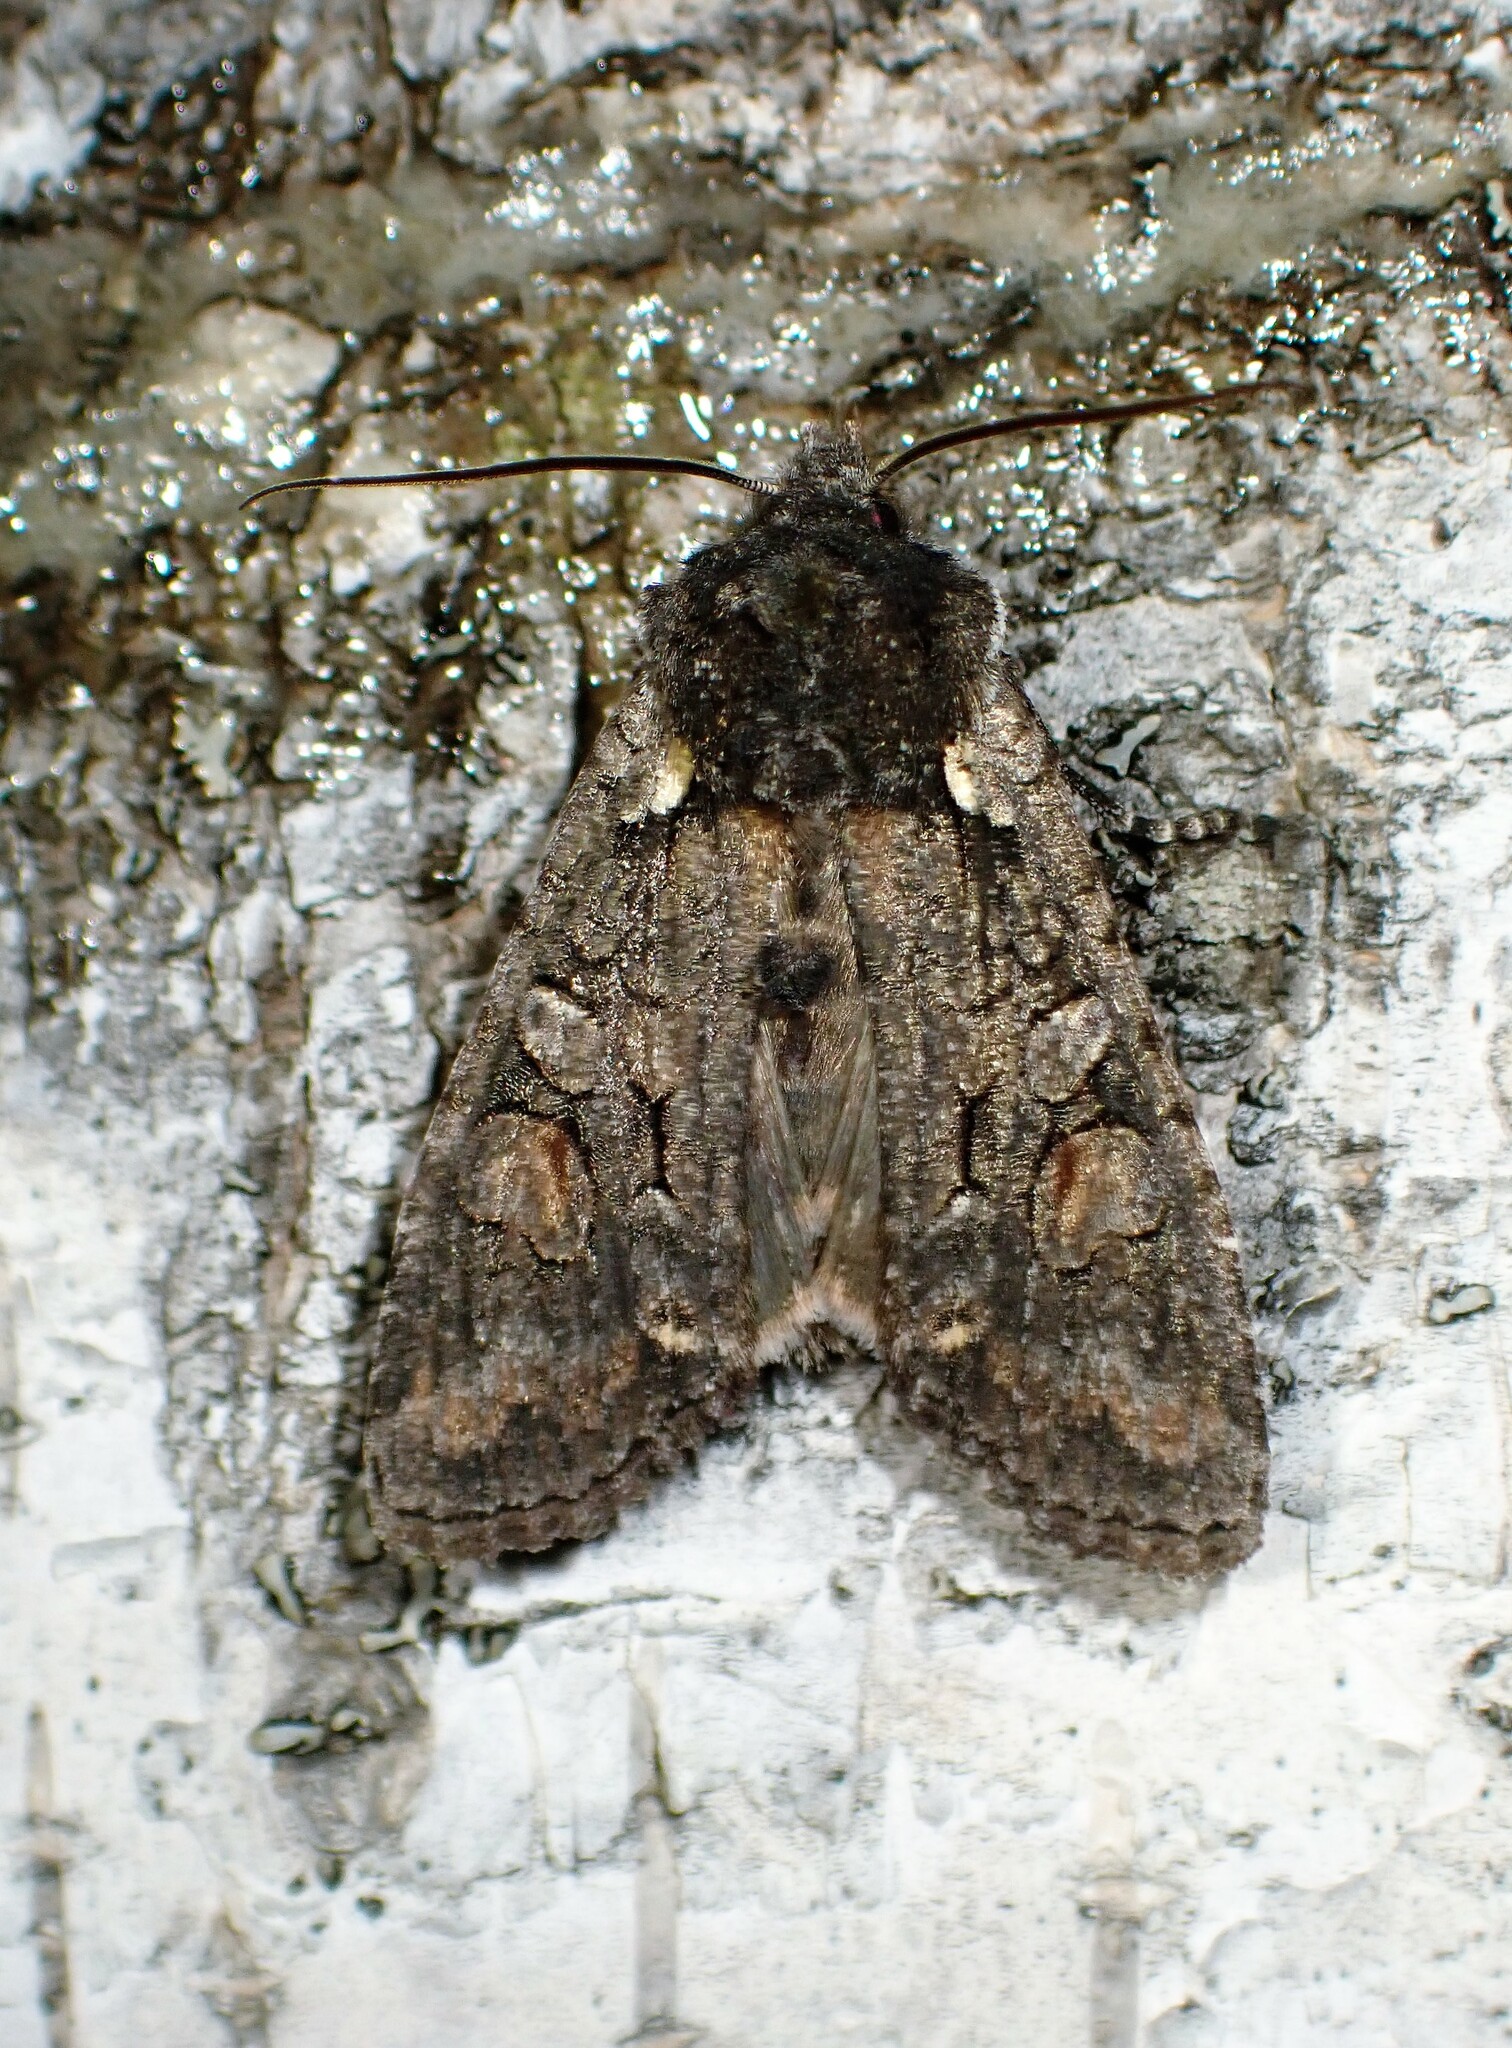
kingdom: Animalia
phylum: Arthropoda
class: Insecta
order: Lepidoptera
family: Noctuidae
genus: Lithophane
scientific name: Lithophane pexata
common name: Plush-naped pinion moth
